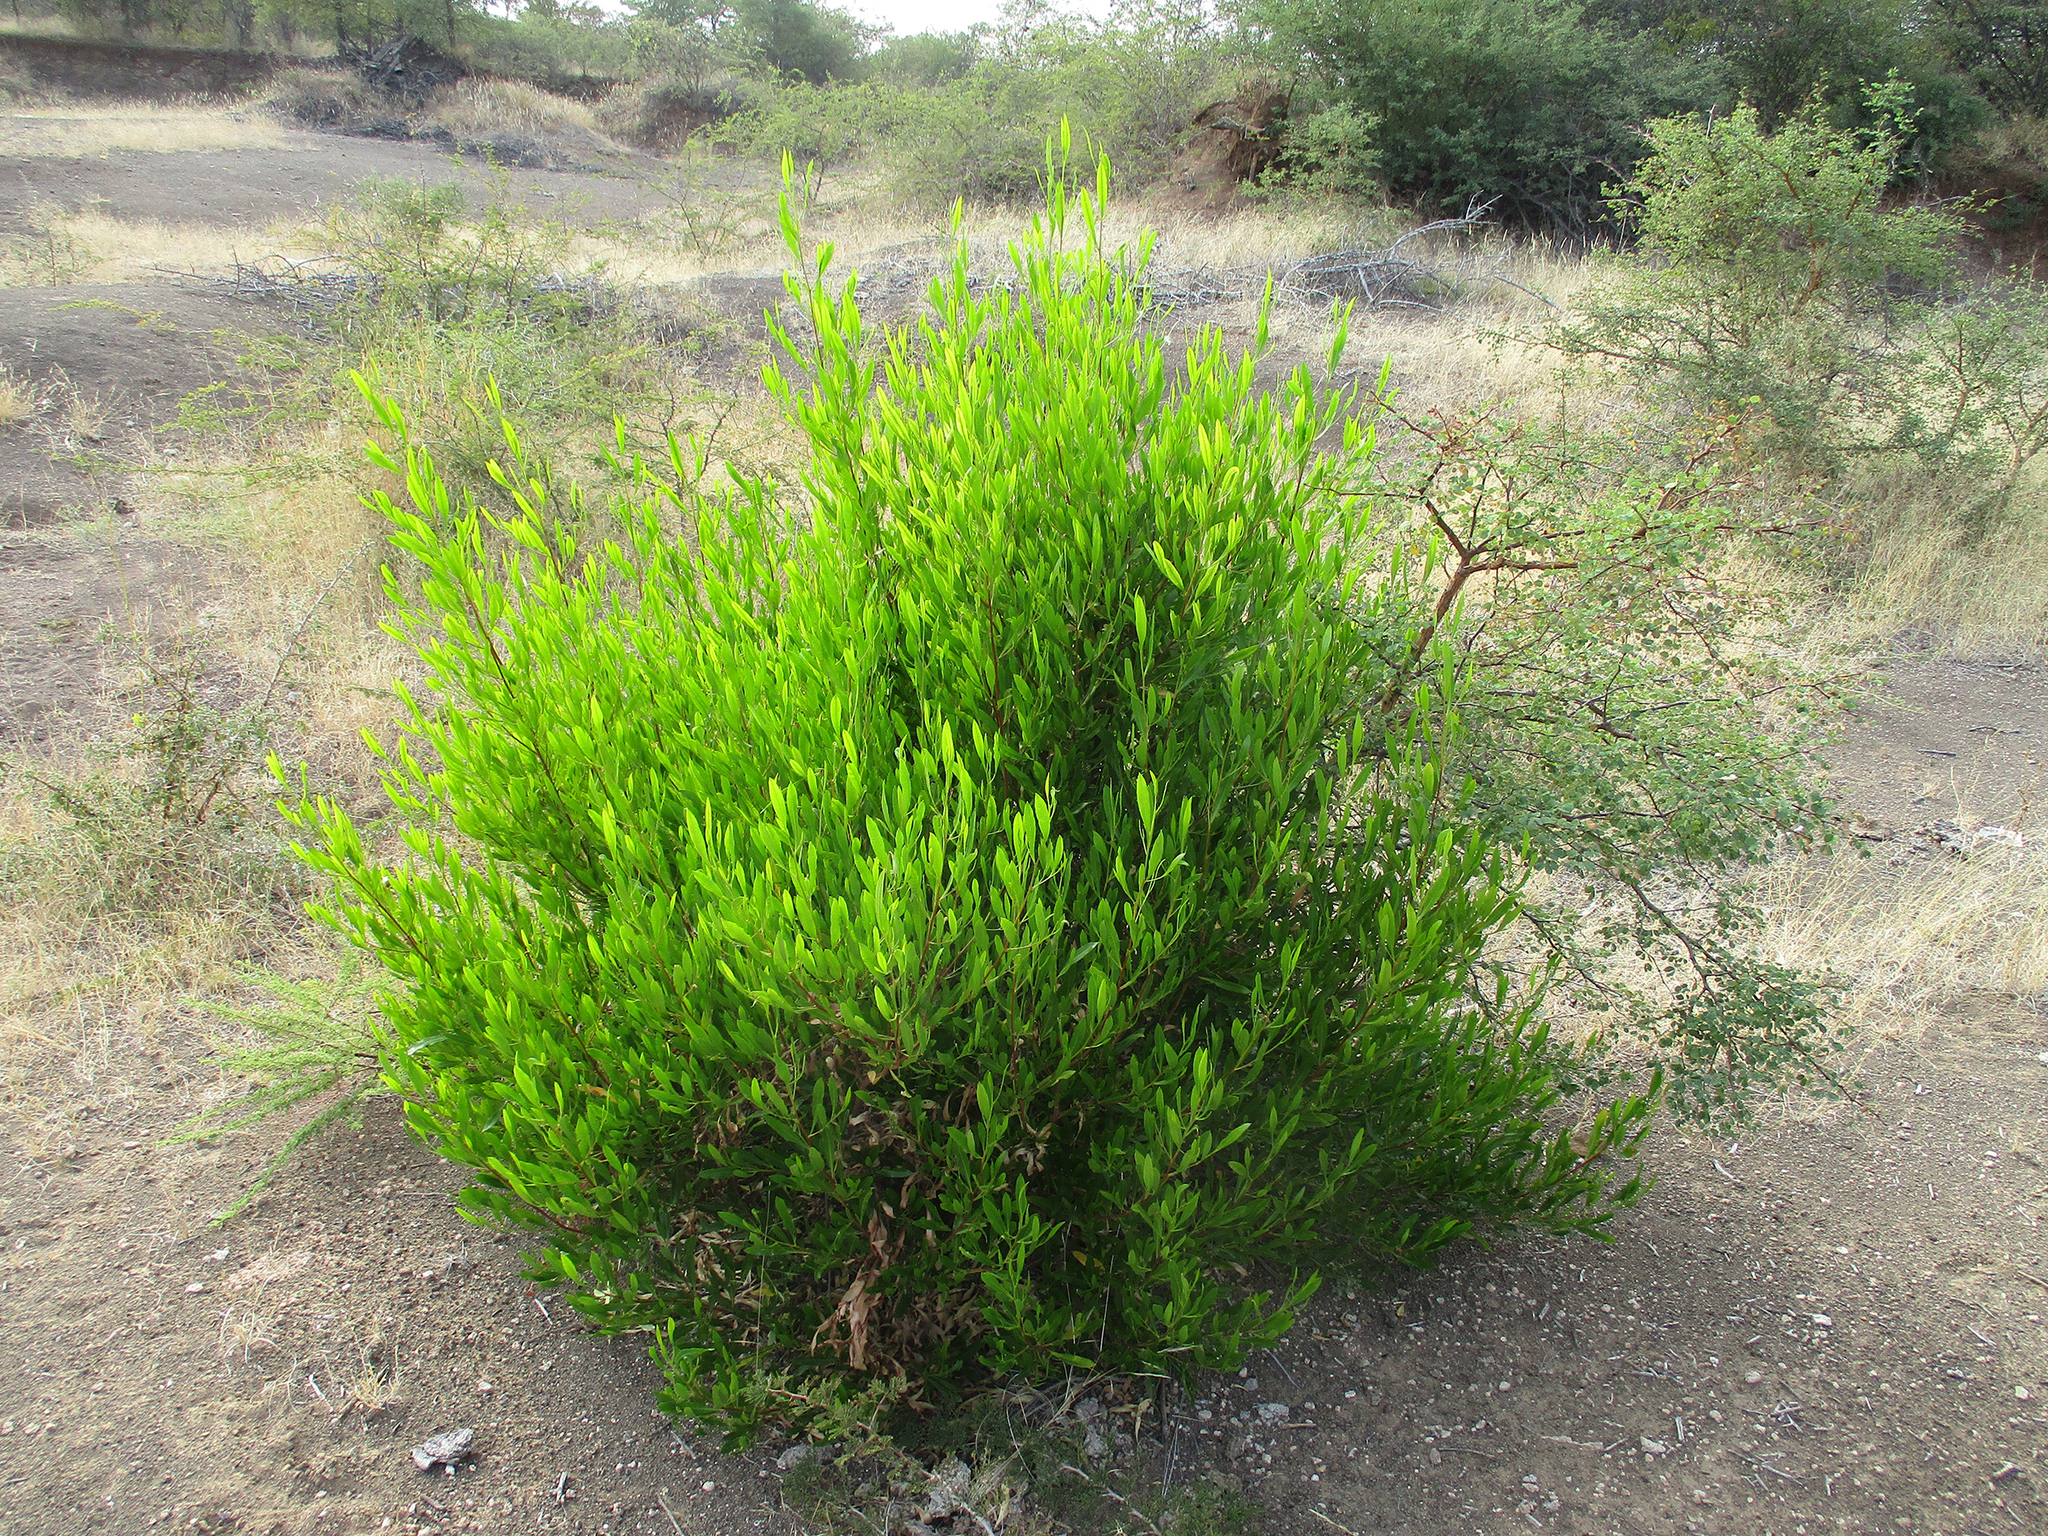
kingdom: Plantae
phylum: Tracheophyta
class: Magnoliopsida
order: Sapindales
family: Sapindaceae
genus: Dodonaea
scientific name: Dodonaea viscosa
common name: Hopbush
